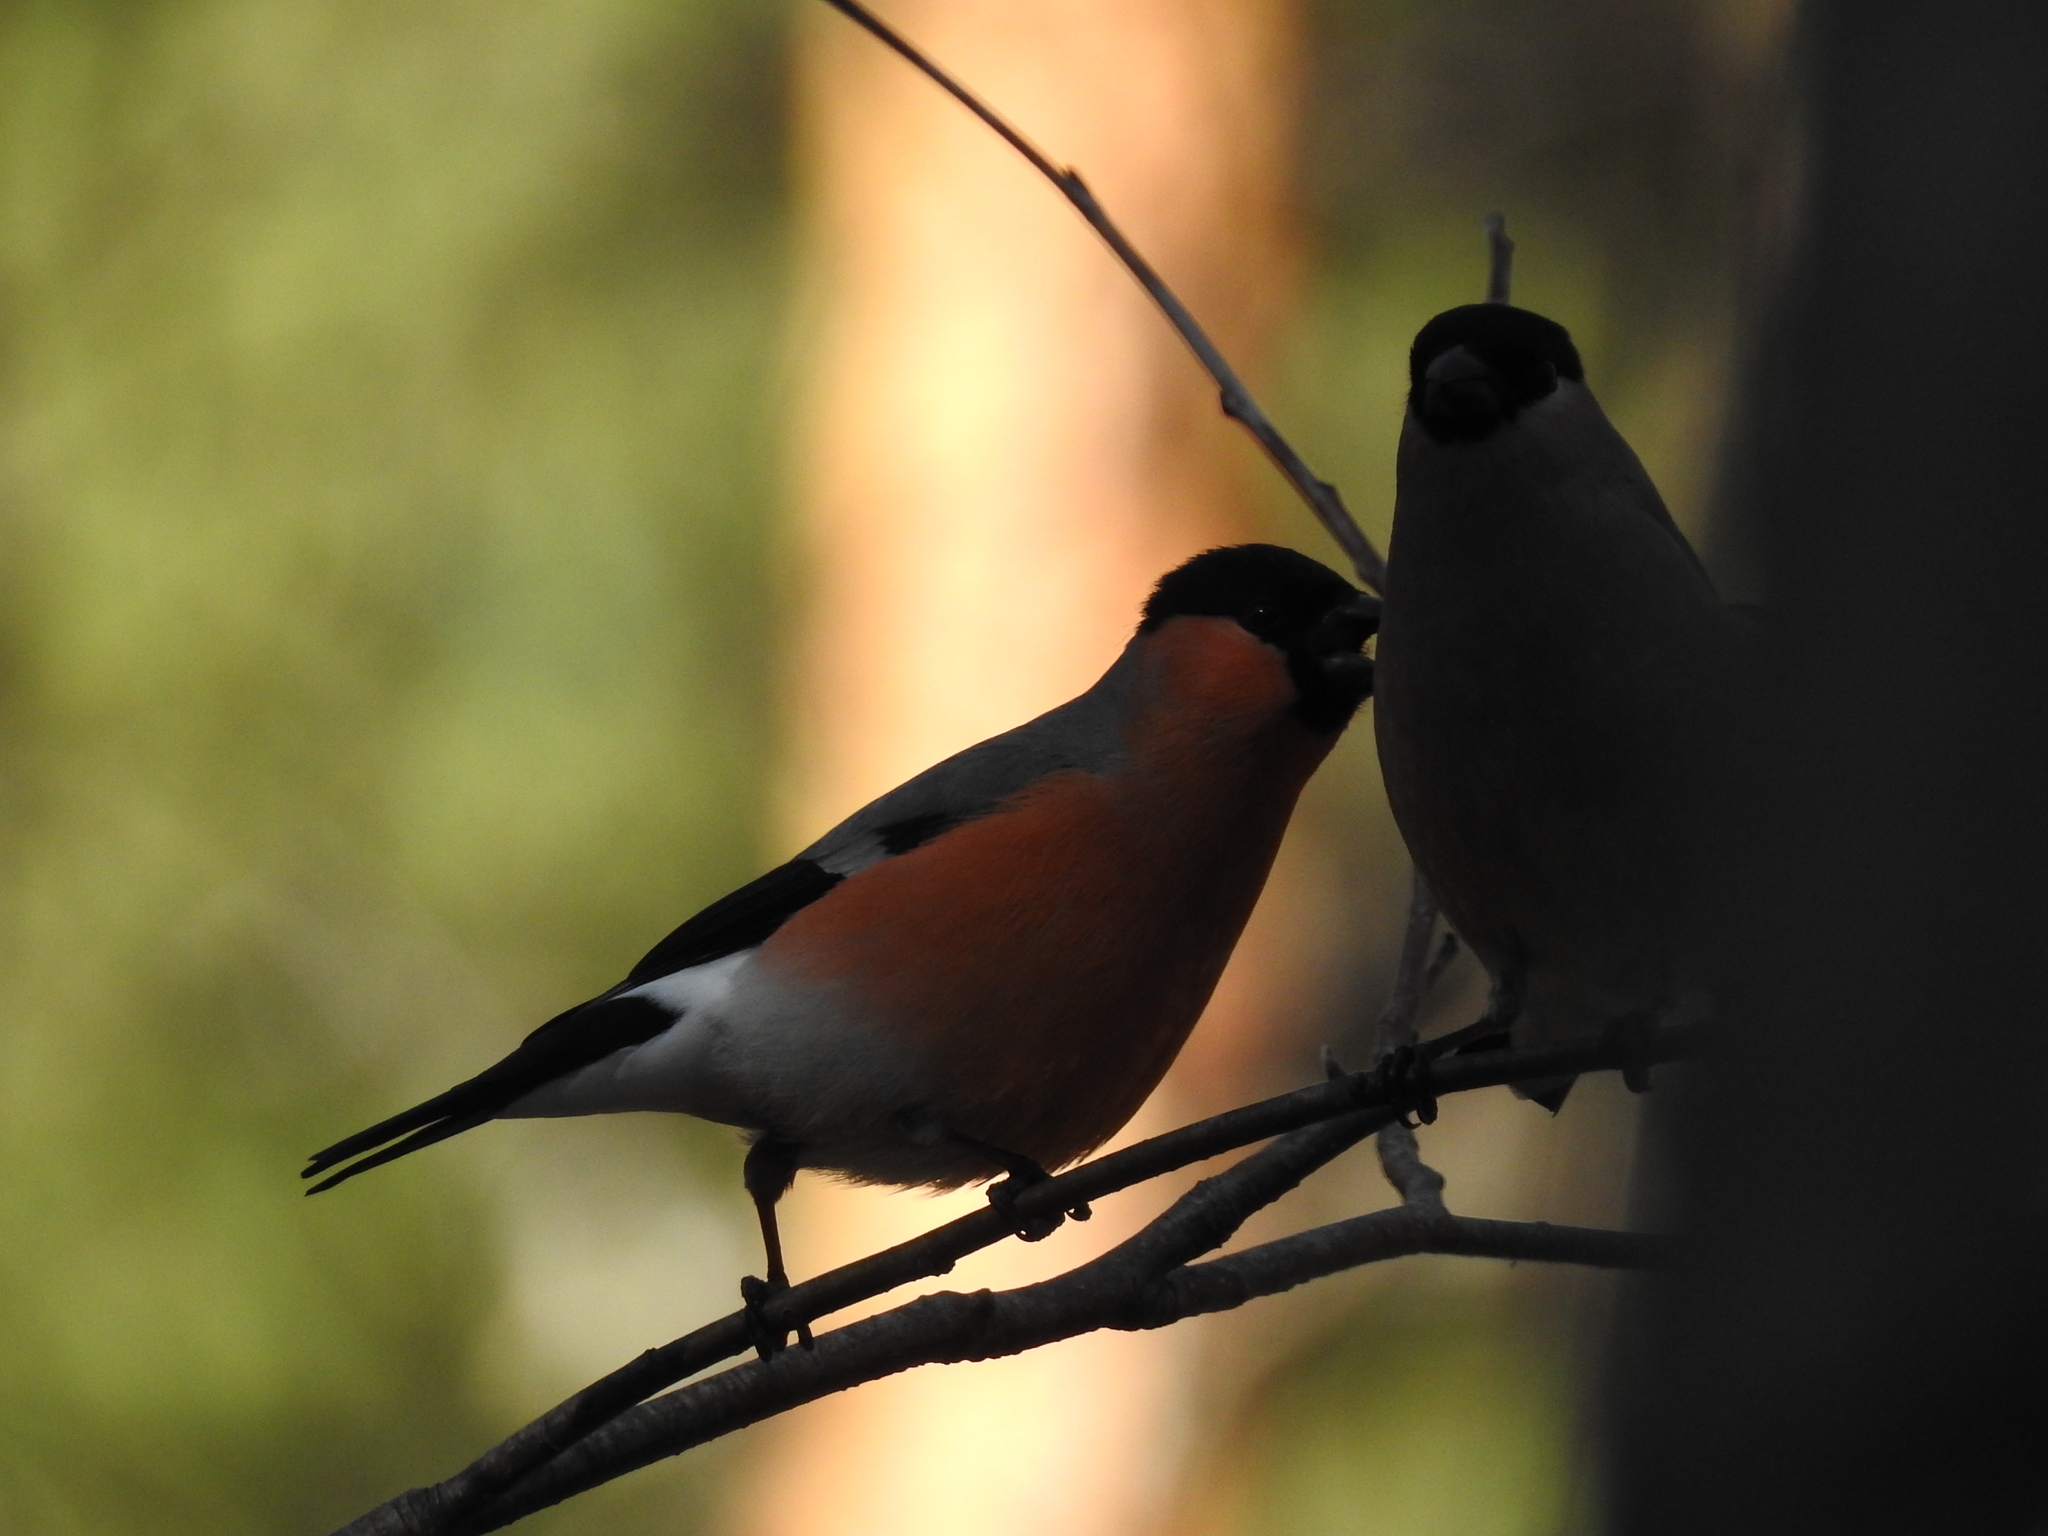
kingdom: Animalia
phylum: Chordata
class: Aves
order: Passeriformes
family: Fringillidae
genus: Pyrrhula
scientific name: Pyrrhula pyrrhula
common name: Eurasian bullfinch
